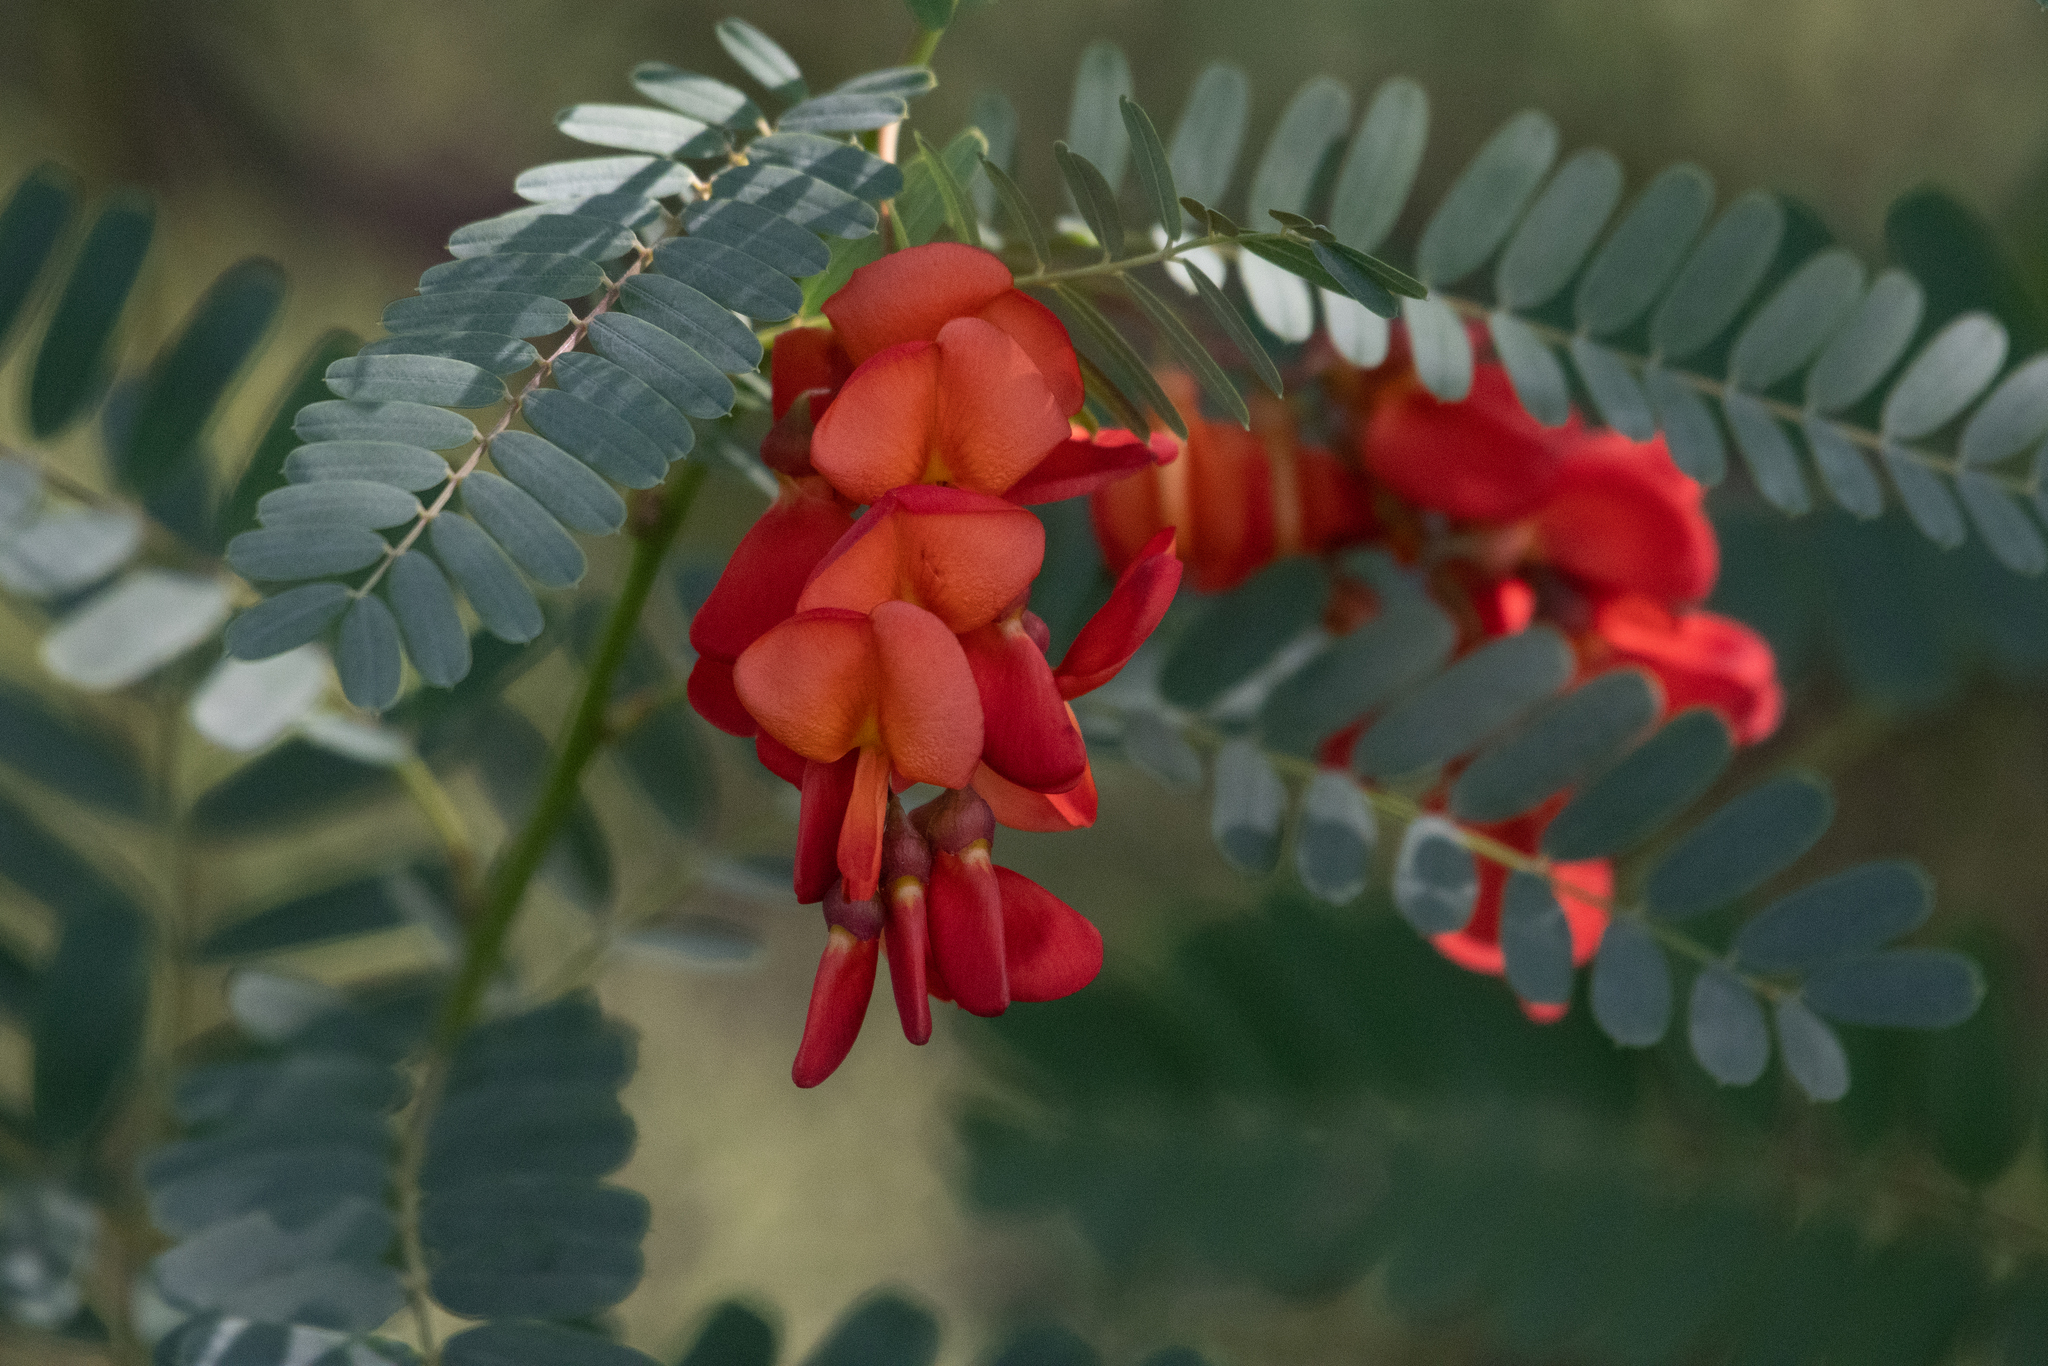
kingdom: Plantae
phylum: Tracheophyta
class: Magnoliopsida
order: Fabales
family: Fabaceae
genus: Sesbania
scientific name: Sesbania punicea
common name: Rattlebox
